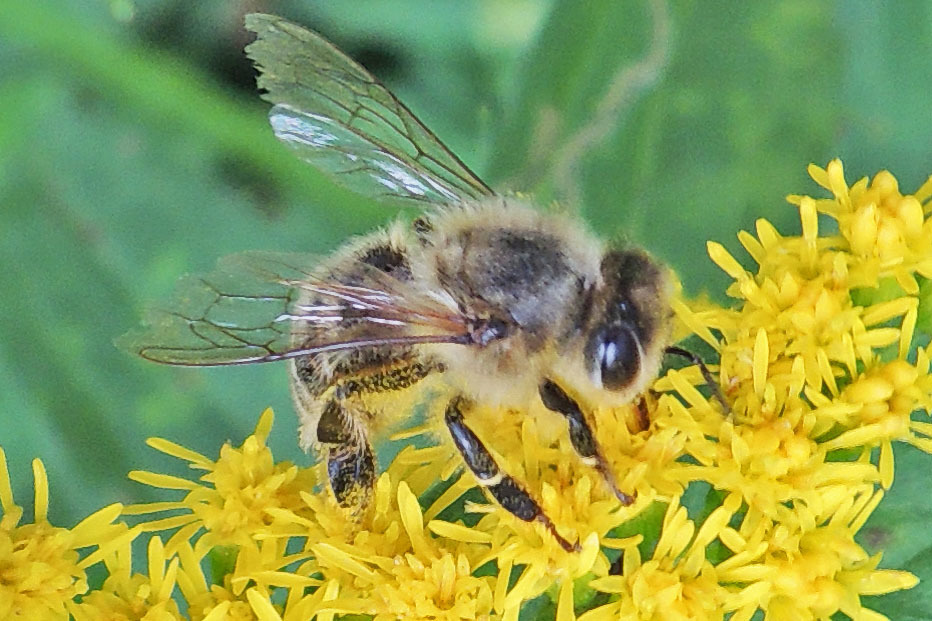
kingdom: Animalia
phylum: Arthropoda
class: Insecta
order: Hymenoptera
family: Apidae
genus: Apis
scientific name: Apis mellifera
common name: Honey bee
